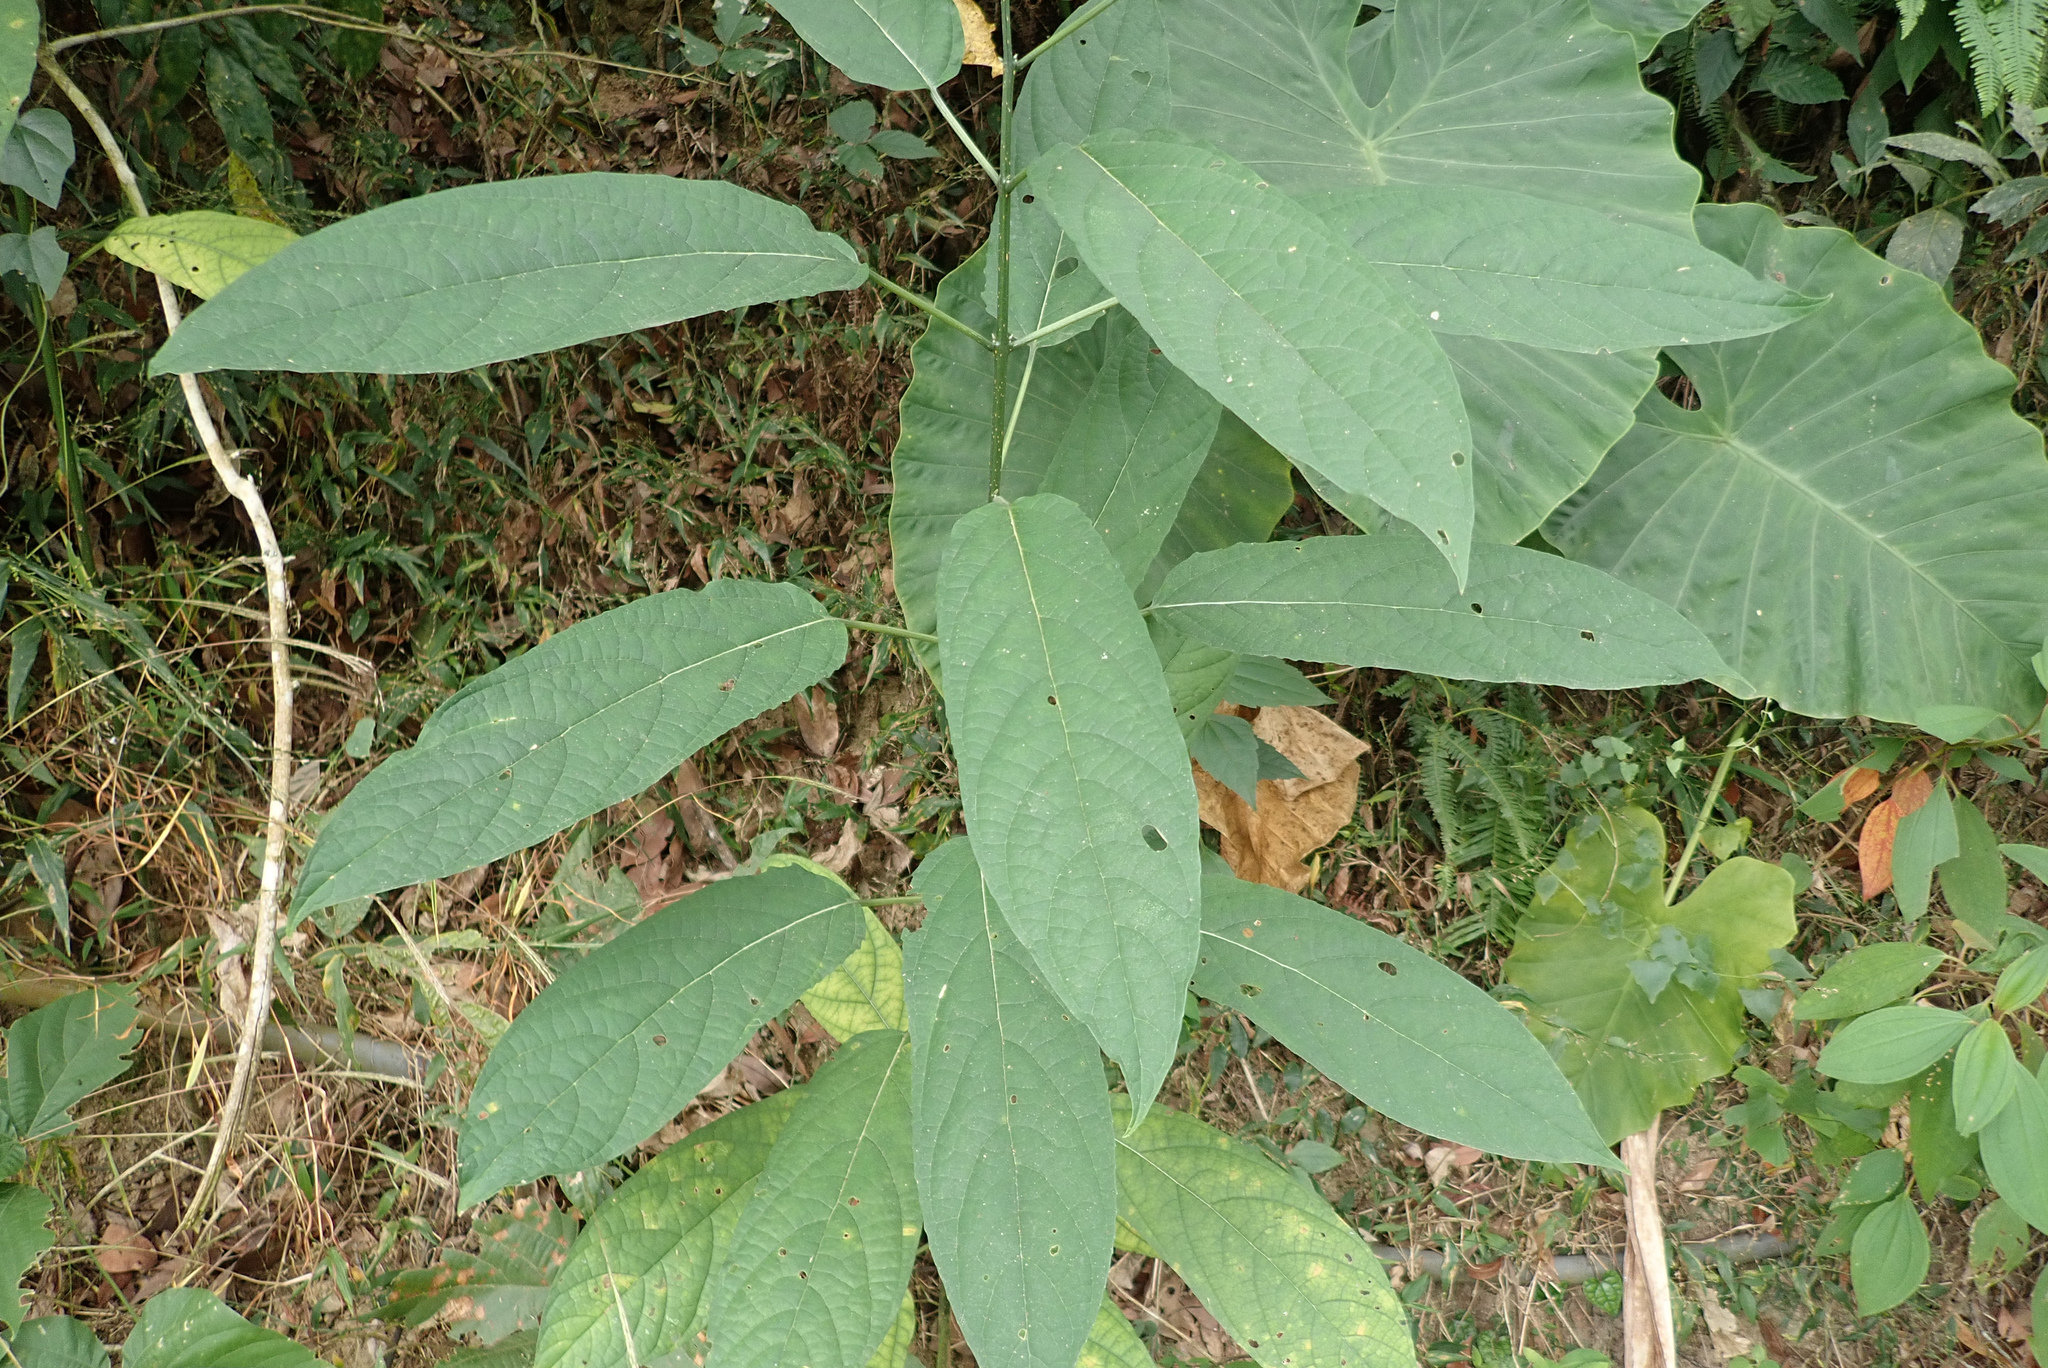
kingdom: Plantae
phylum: Tracheophyta
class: Magnoliopsida
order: Lamiales
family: Lamiaceae
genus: Clerodendrum
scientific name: Clerodendrum cyrtophyllum
